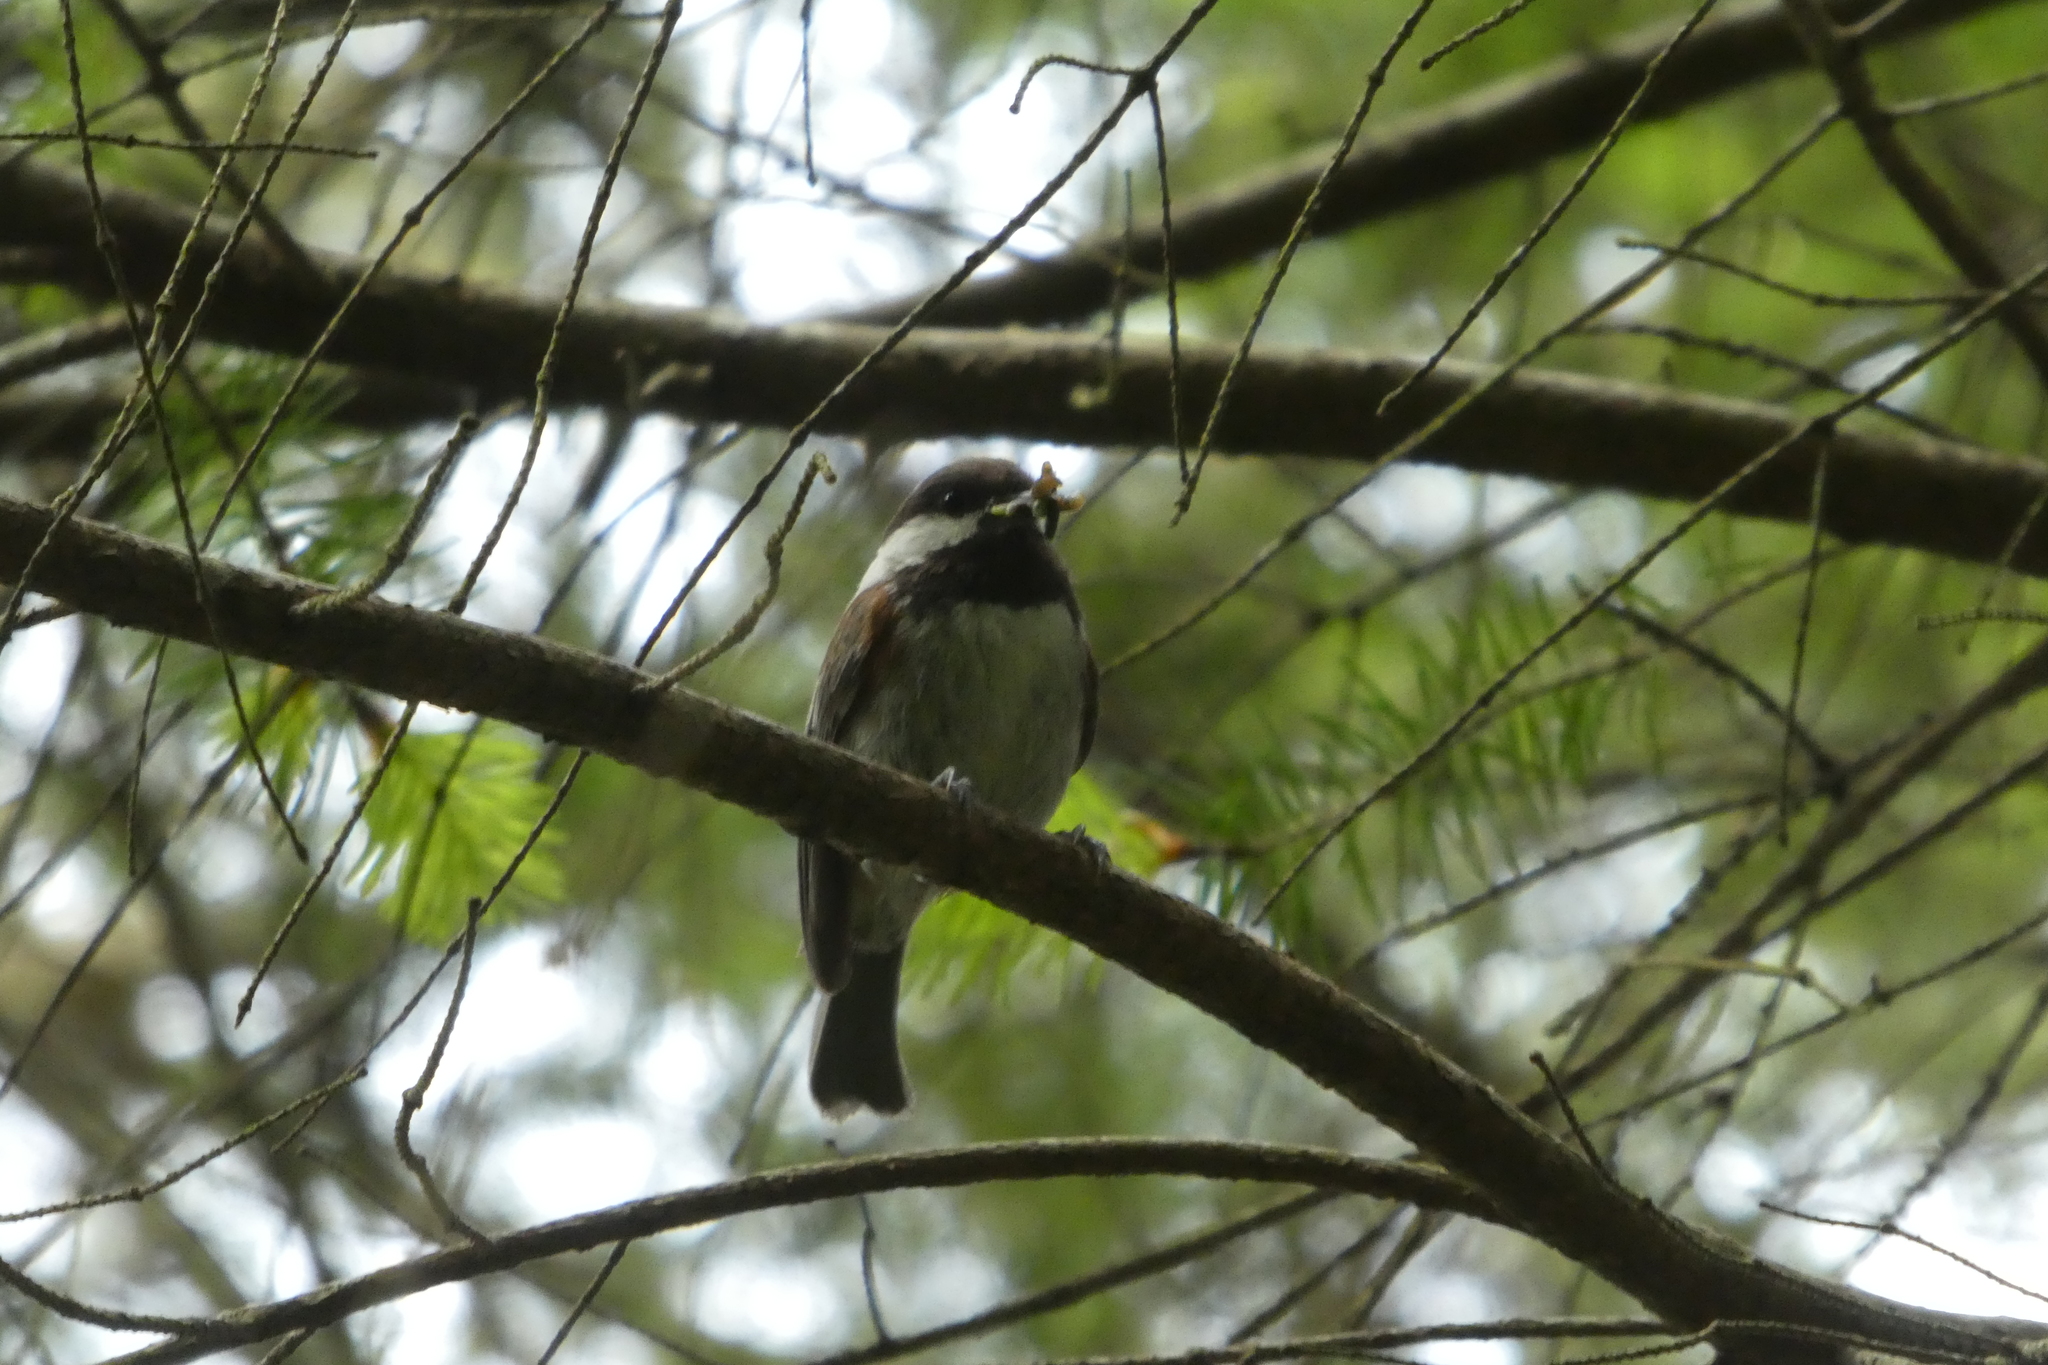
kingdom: Animalia
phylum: Chordata
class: Aves
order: Passeriformes
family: Paridae
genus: Poecile
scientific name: Poecile rufescens
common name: Chestnut-backed chickadee
